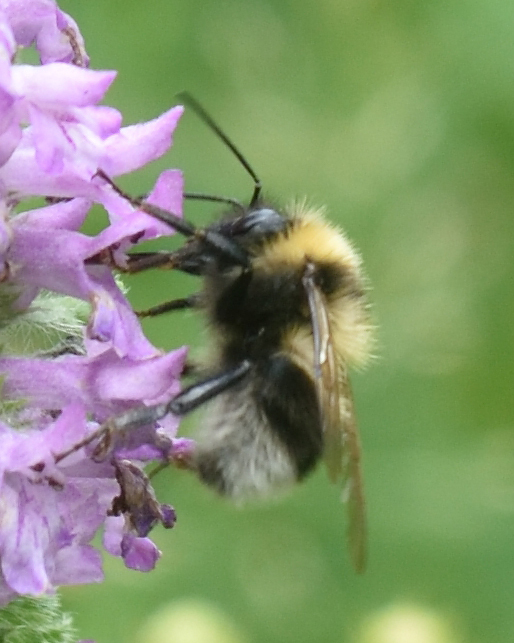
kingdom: Animalia
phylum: Arthropoda
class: Insecta
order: Hymenoptera
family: Apidae
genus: Bombus
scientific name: Bombus
